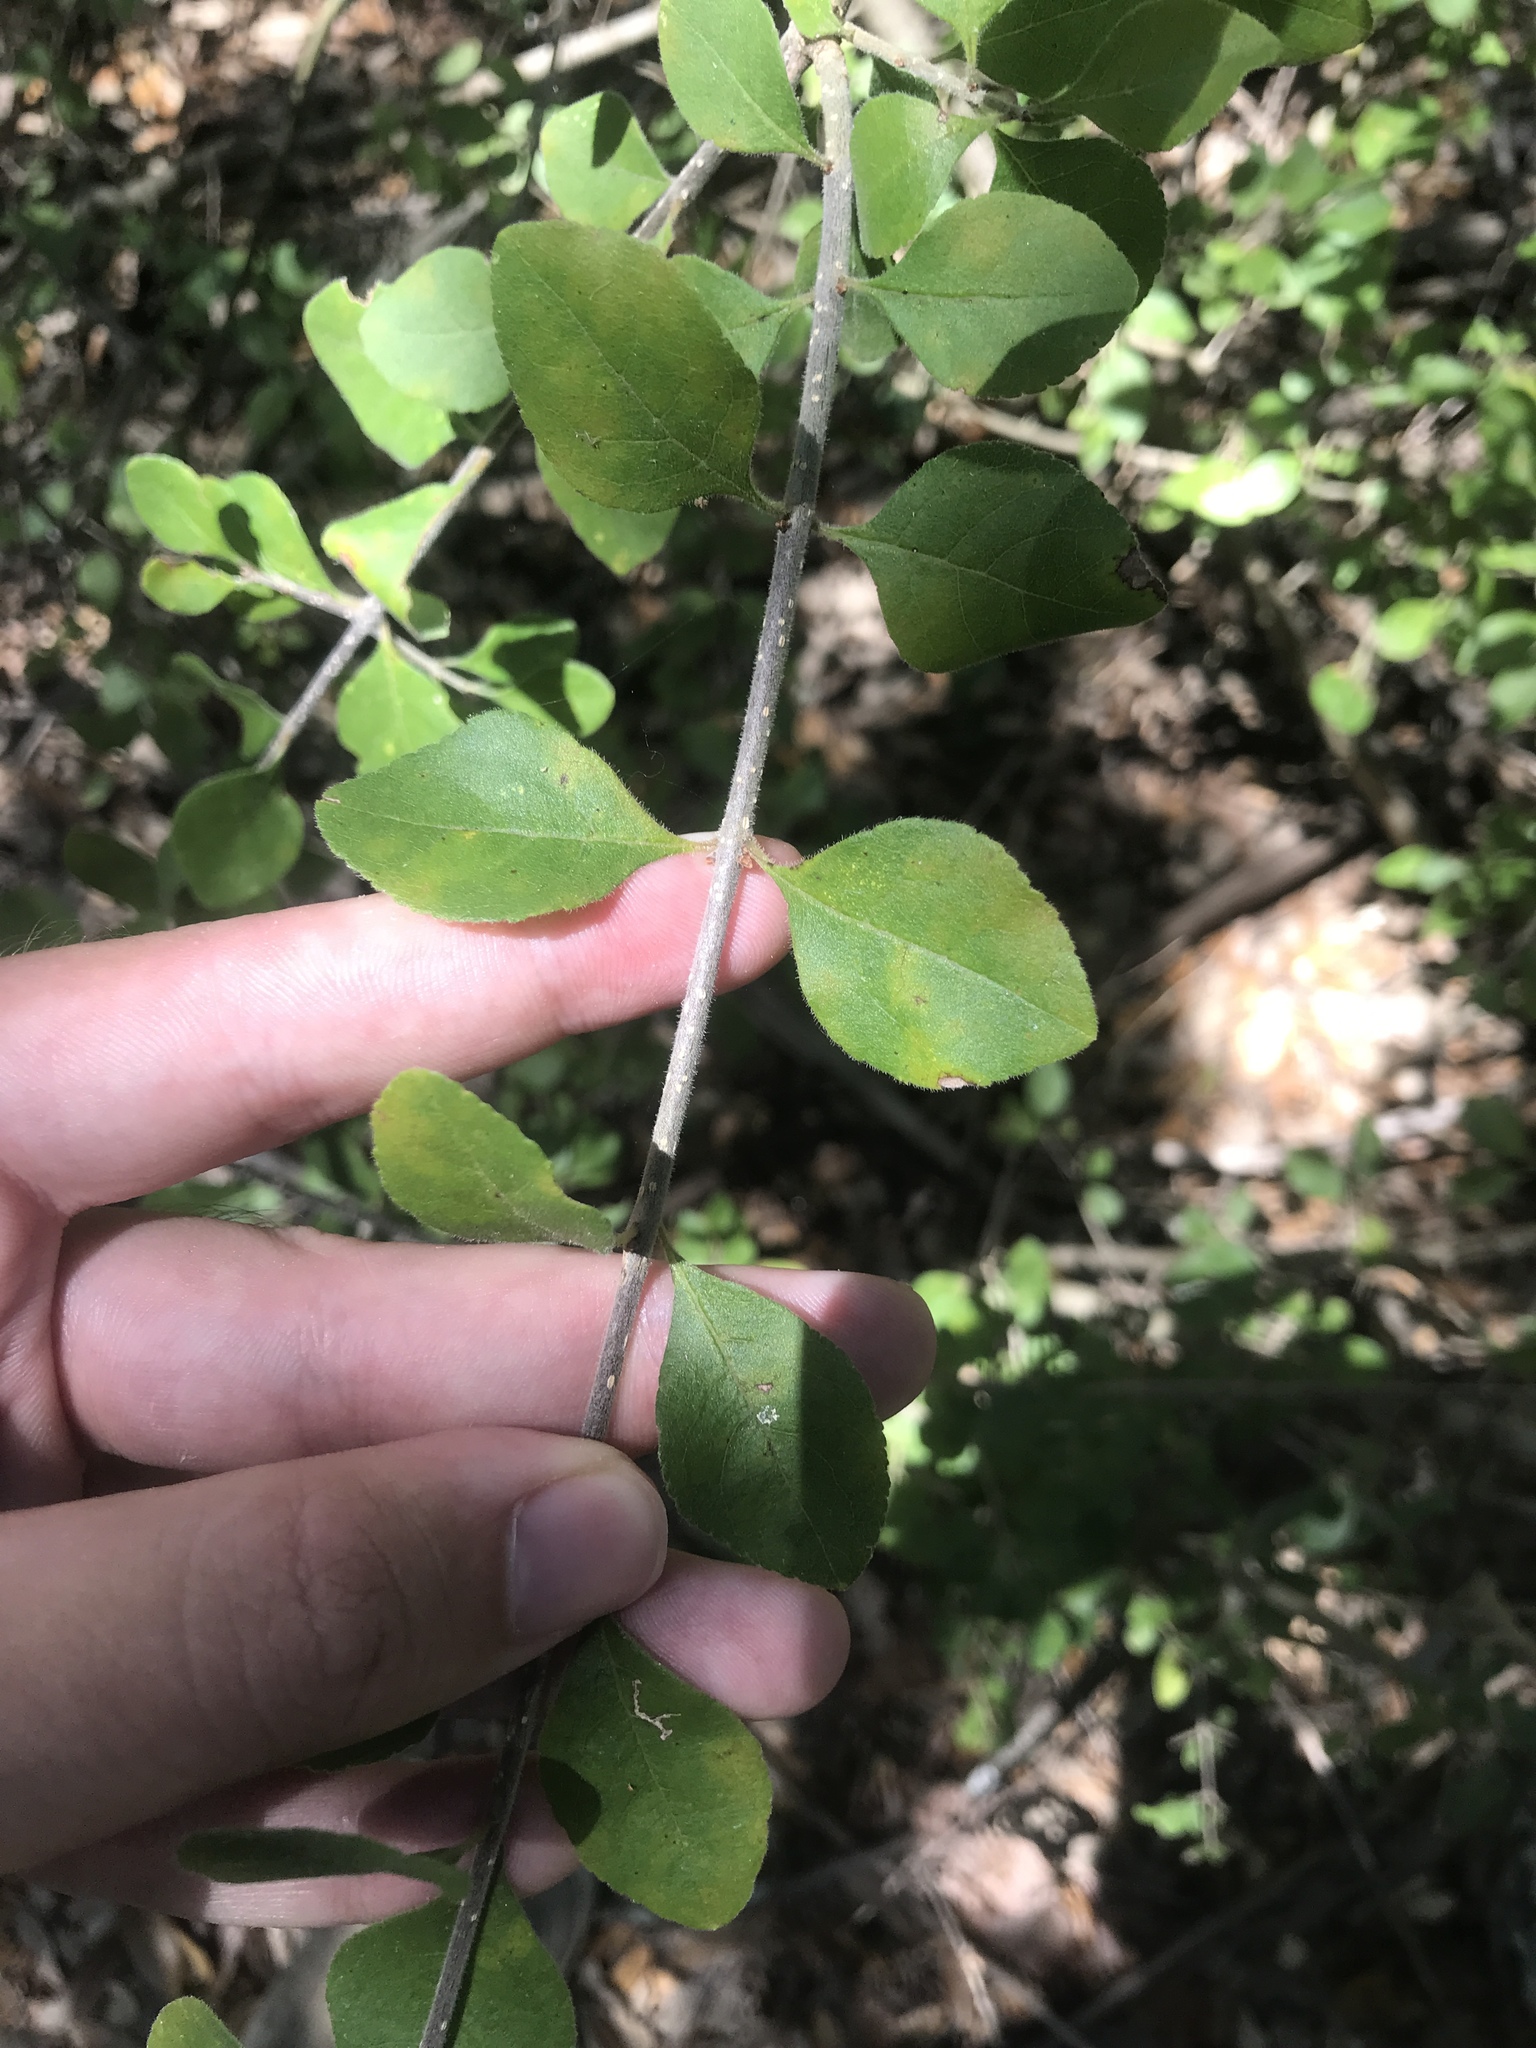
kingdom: Plantae
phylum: Tracheophyta
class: Magnoliopsida
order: Lamiales
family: Oleaceae
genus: Forestiera
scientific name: Forestiera pubescens
